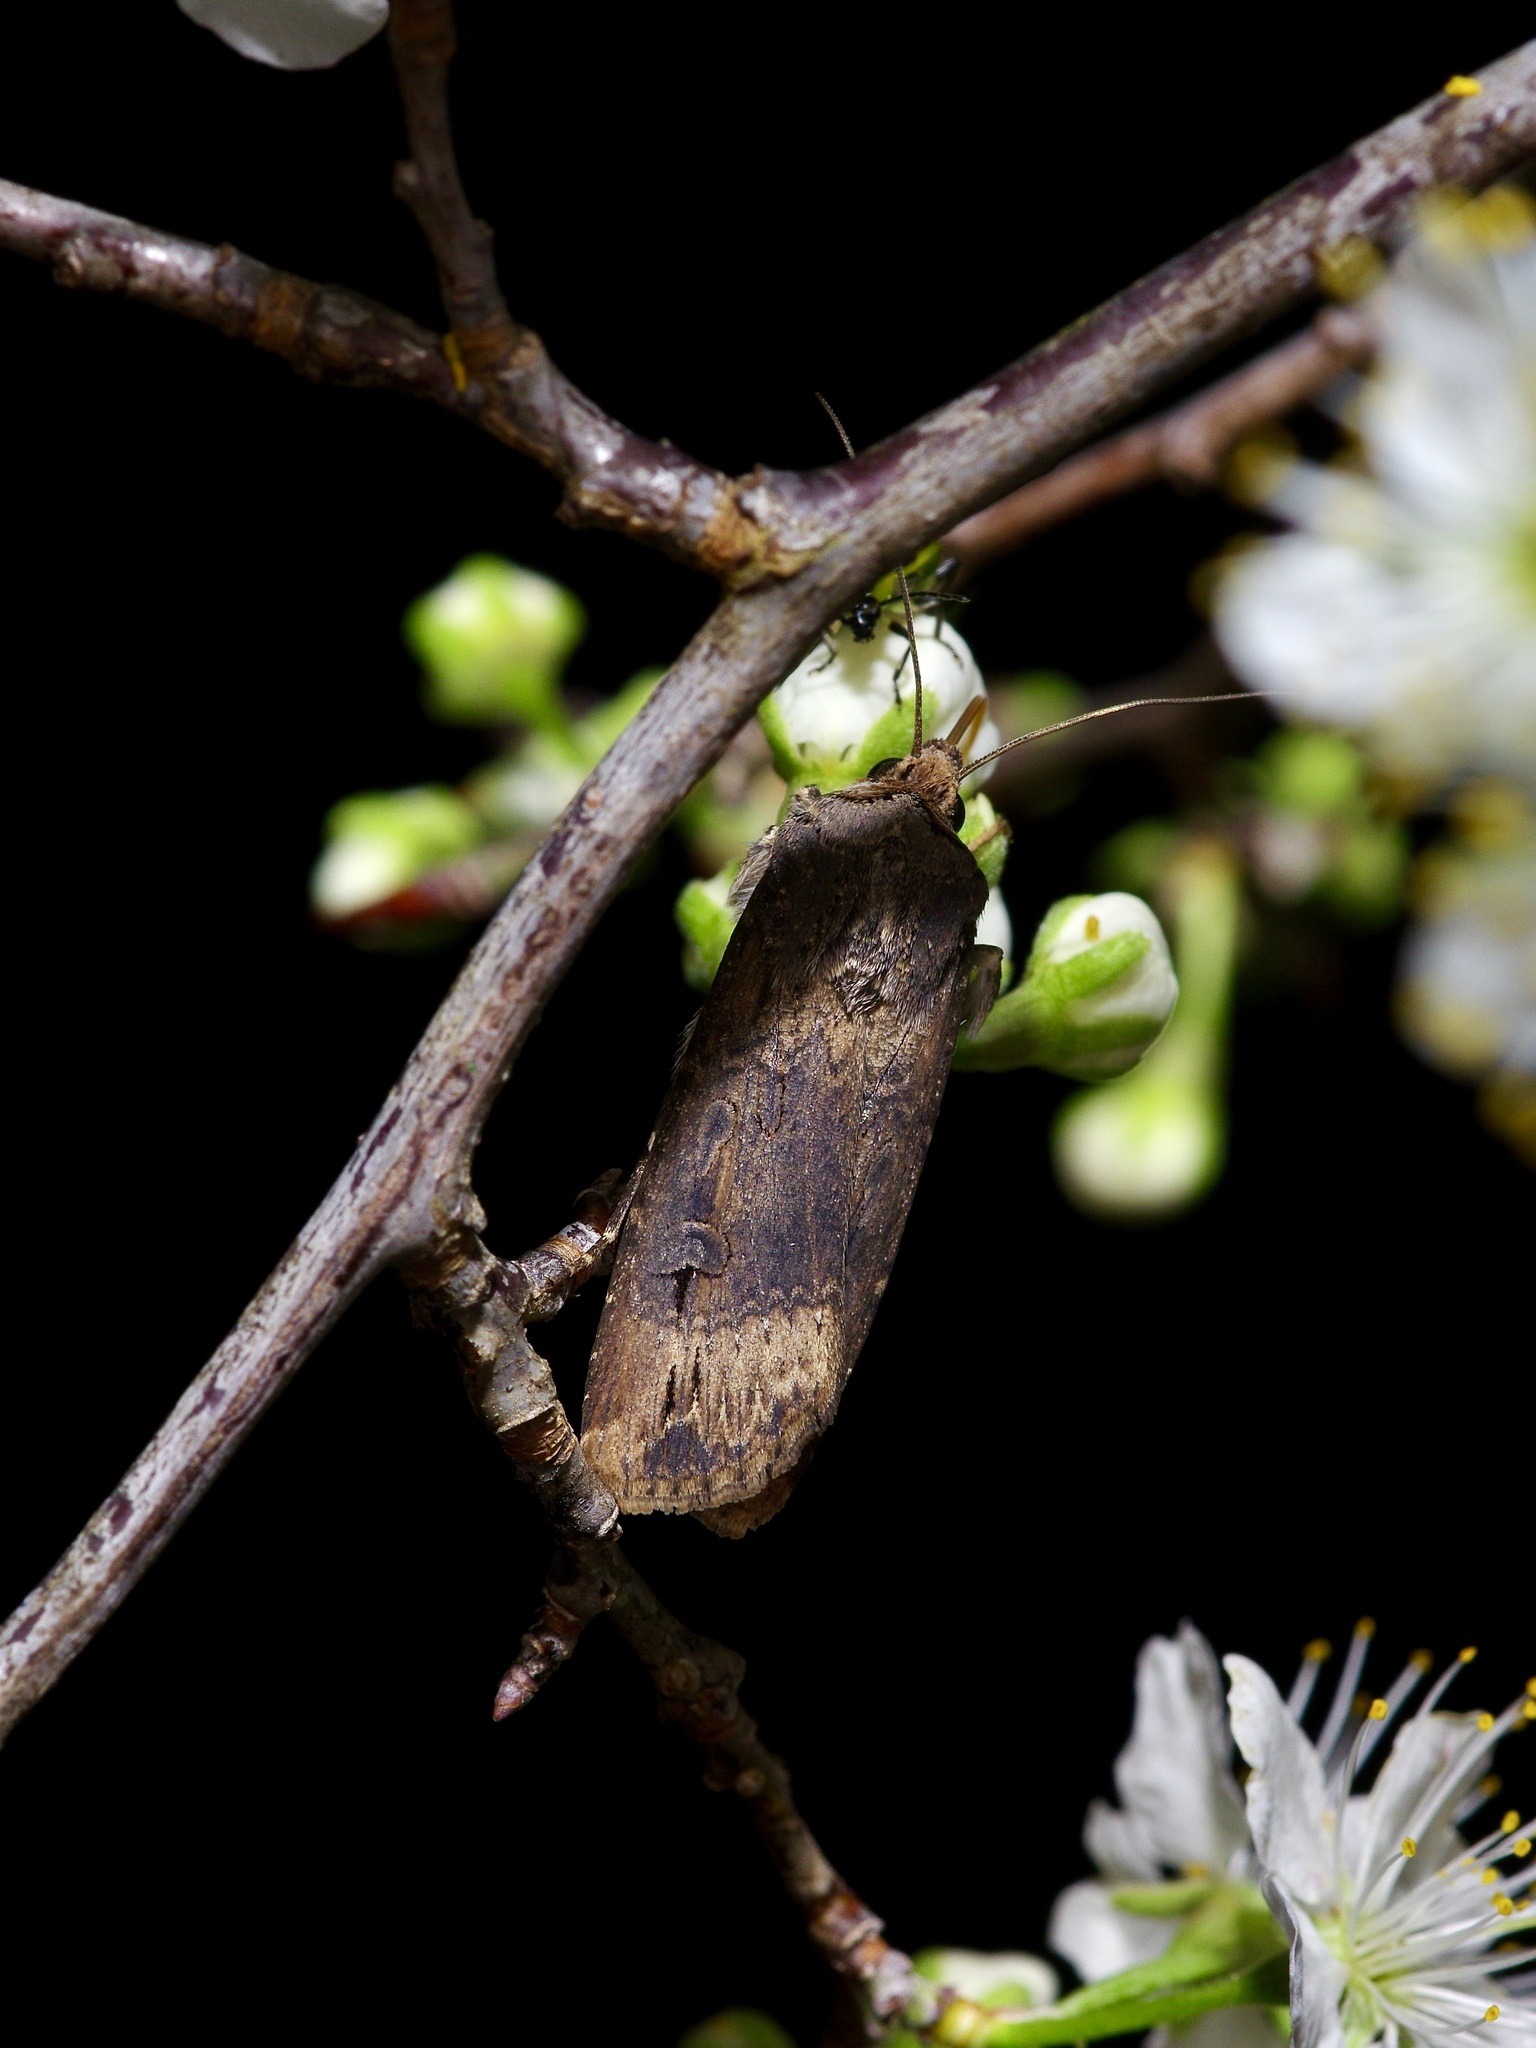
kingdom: Animalia
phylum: Arthropoda
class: Insecta
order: Lepidoptera
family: Noctuidae
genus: Agrotis
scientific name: Agrotis ipsilon
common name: Dark sword-grass
